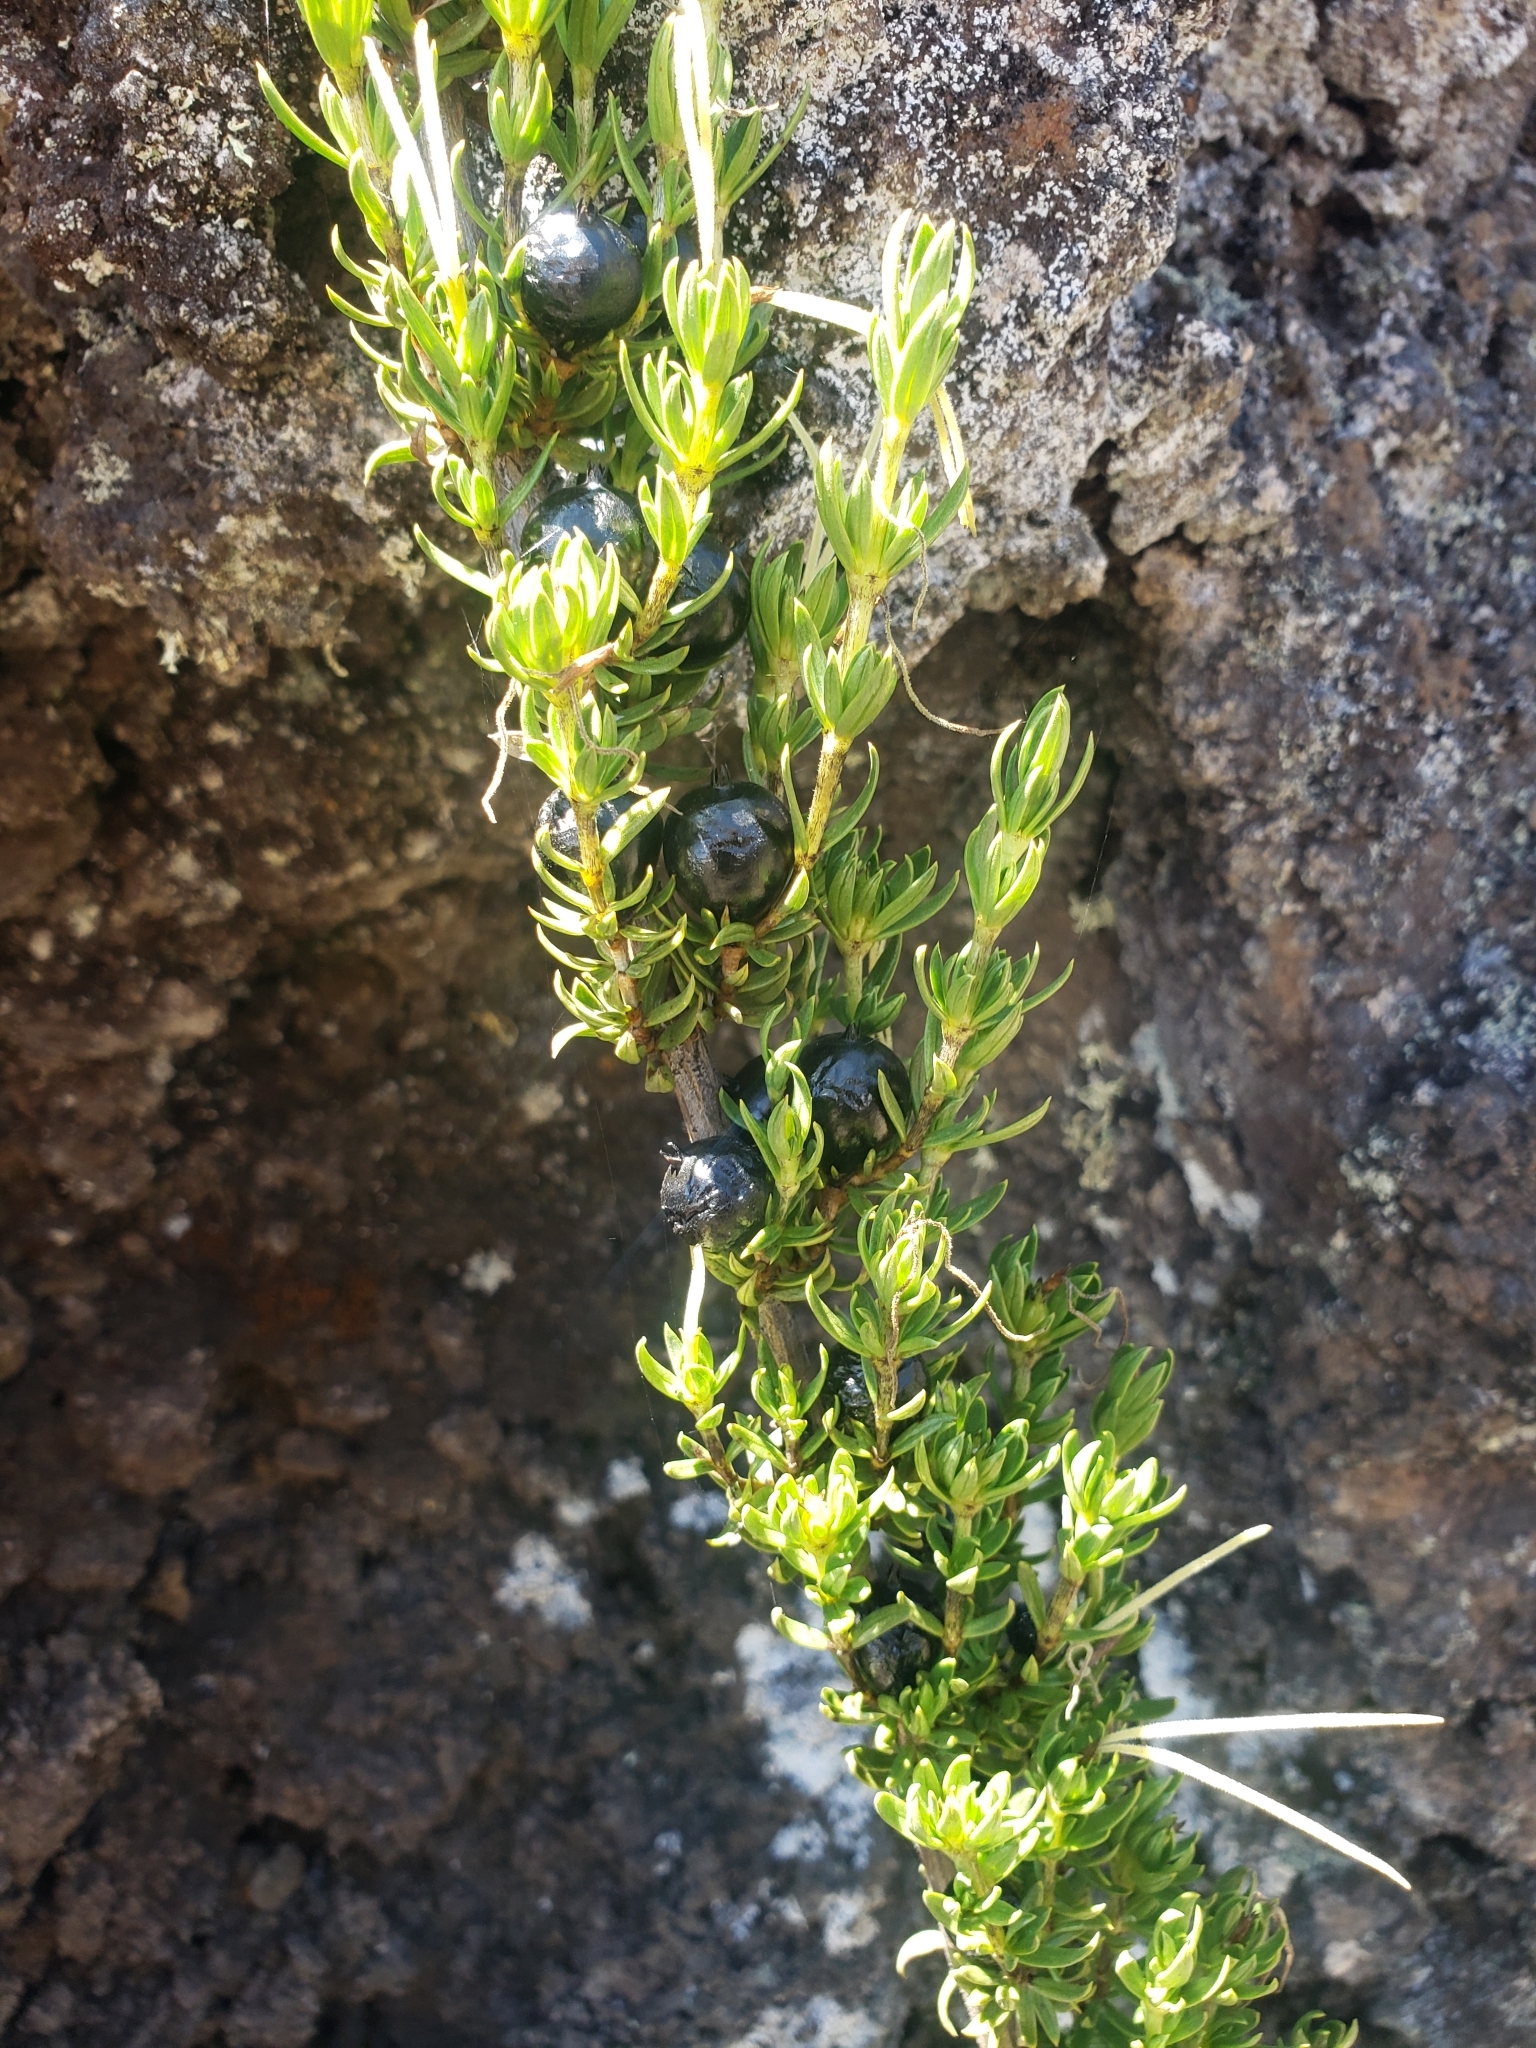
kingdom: Plantae
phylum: Tracheophyta
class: Magnoliopsida
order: Gentianales
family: Rubiaceae
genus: Coprosma
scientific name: Coprosma ernodeoides
